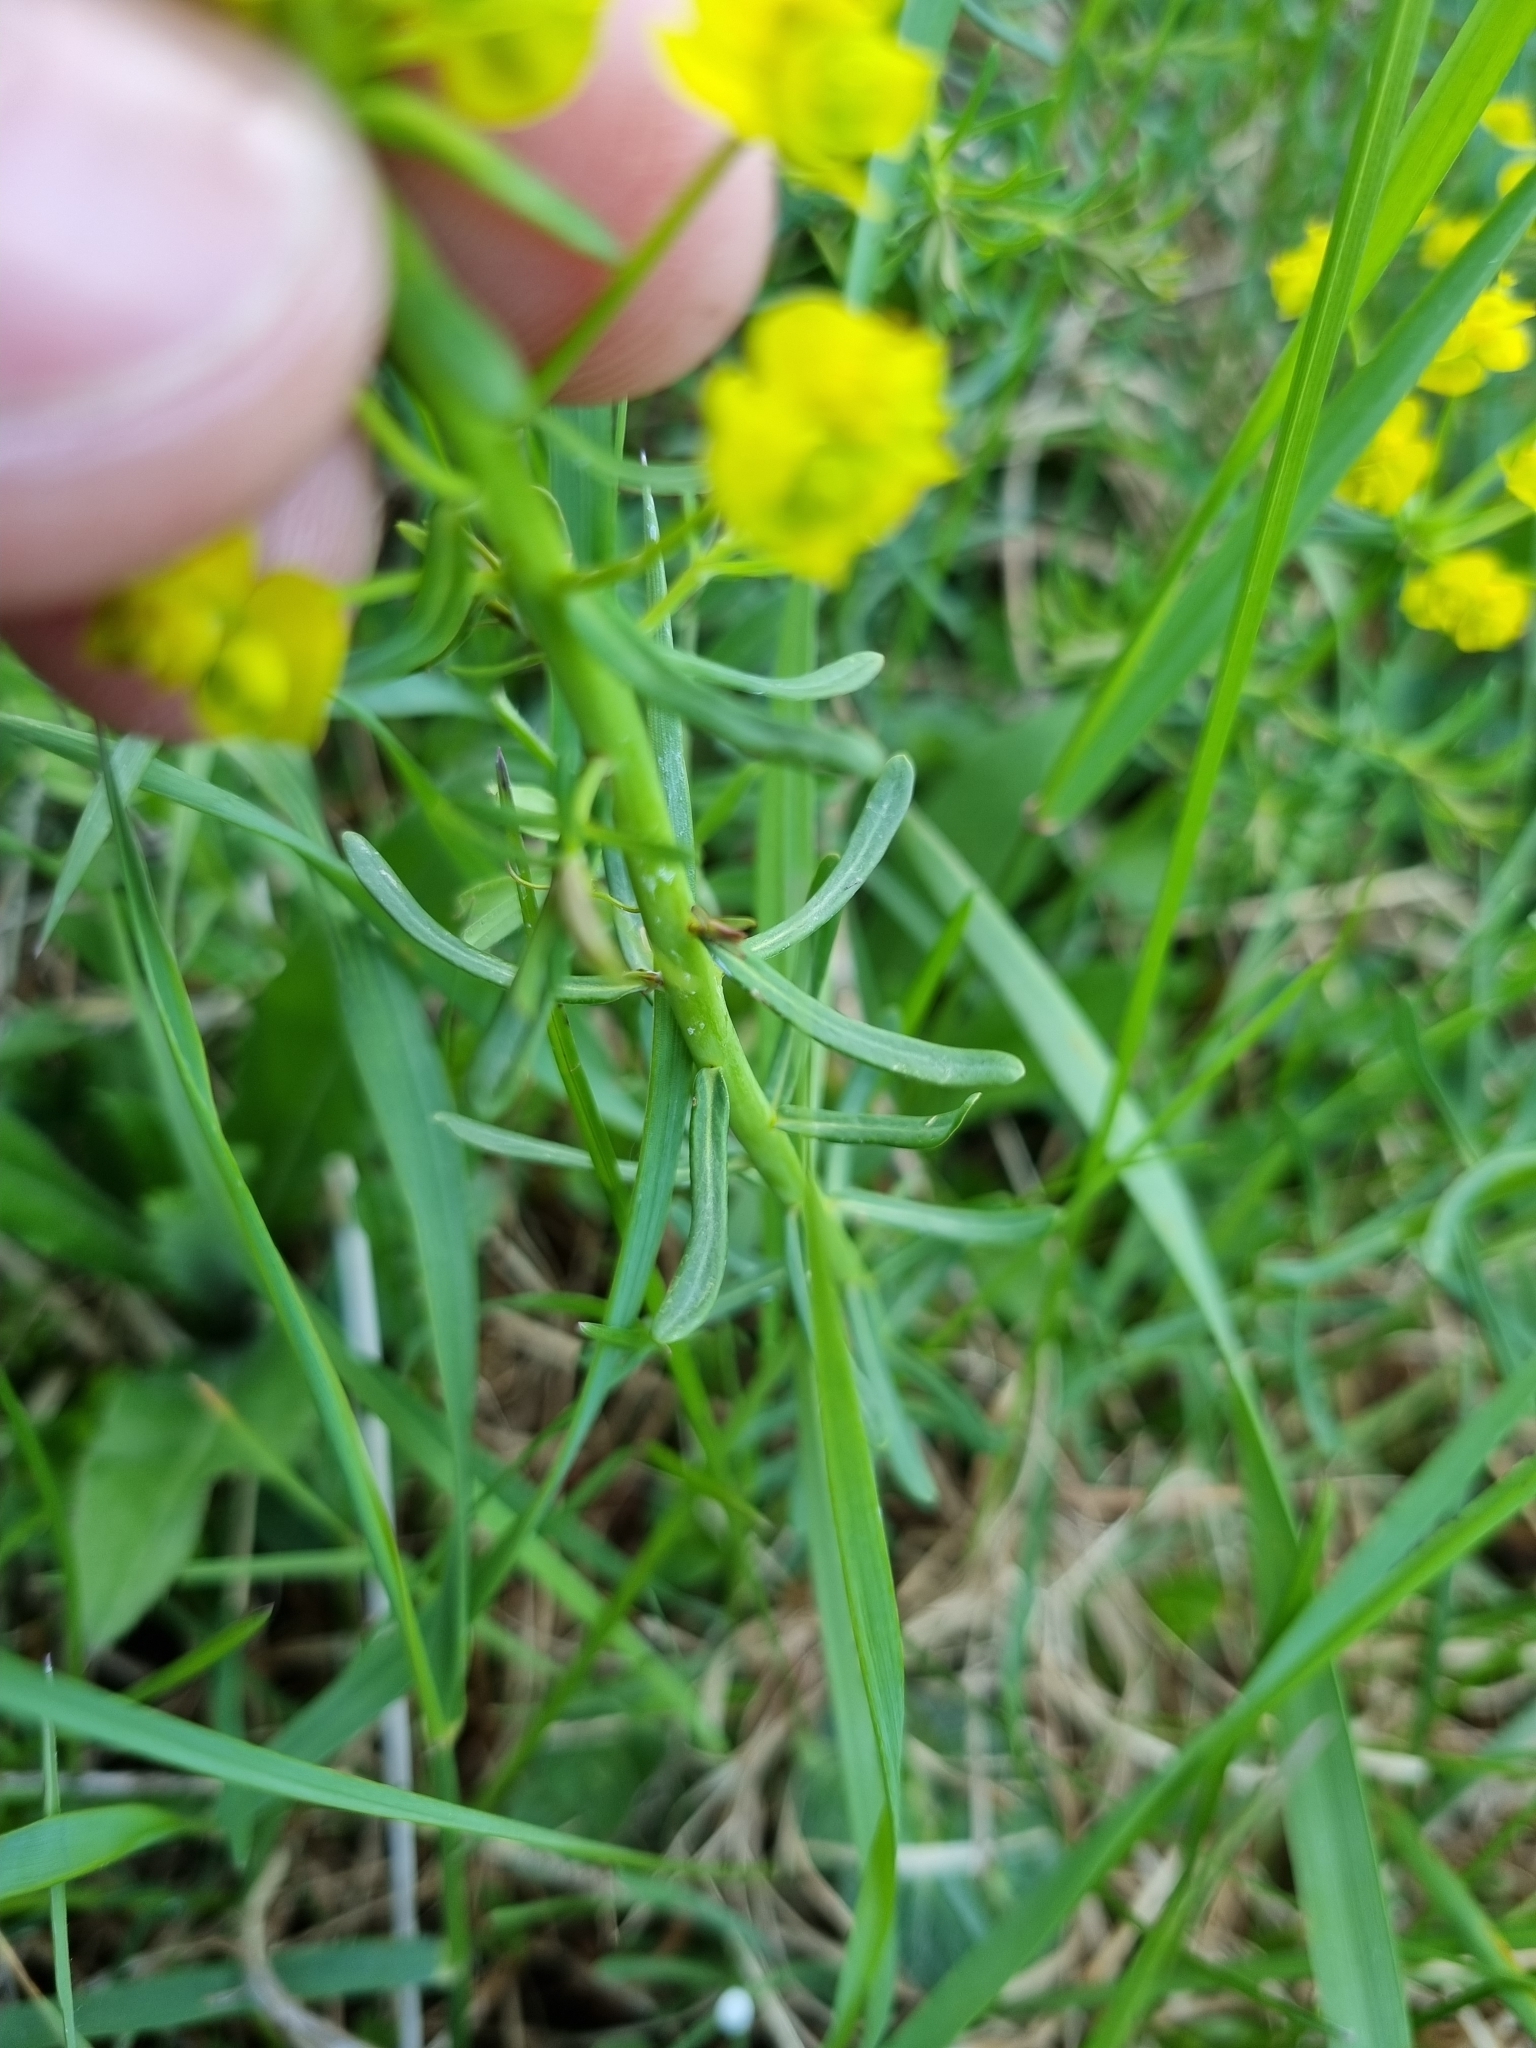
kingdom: Plantae
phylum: Tracheophyta
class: Magnoliopsida
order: Malpighiales
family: Euphorbiaceae
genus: Euphorbia
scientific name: Euphorbia cyparissias
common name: Cypress spurge
